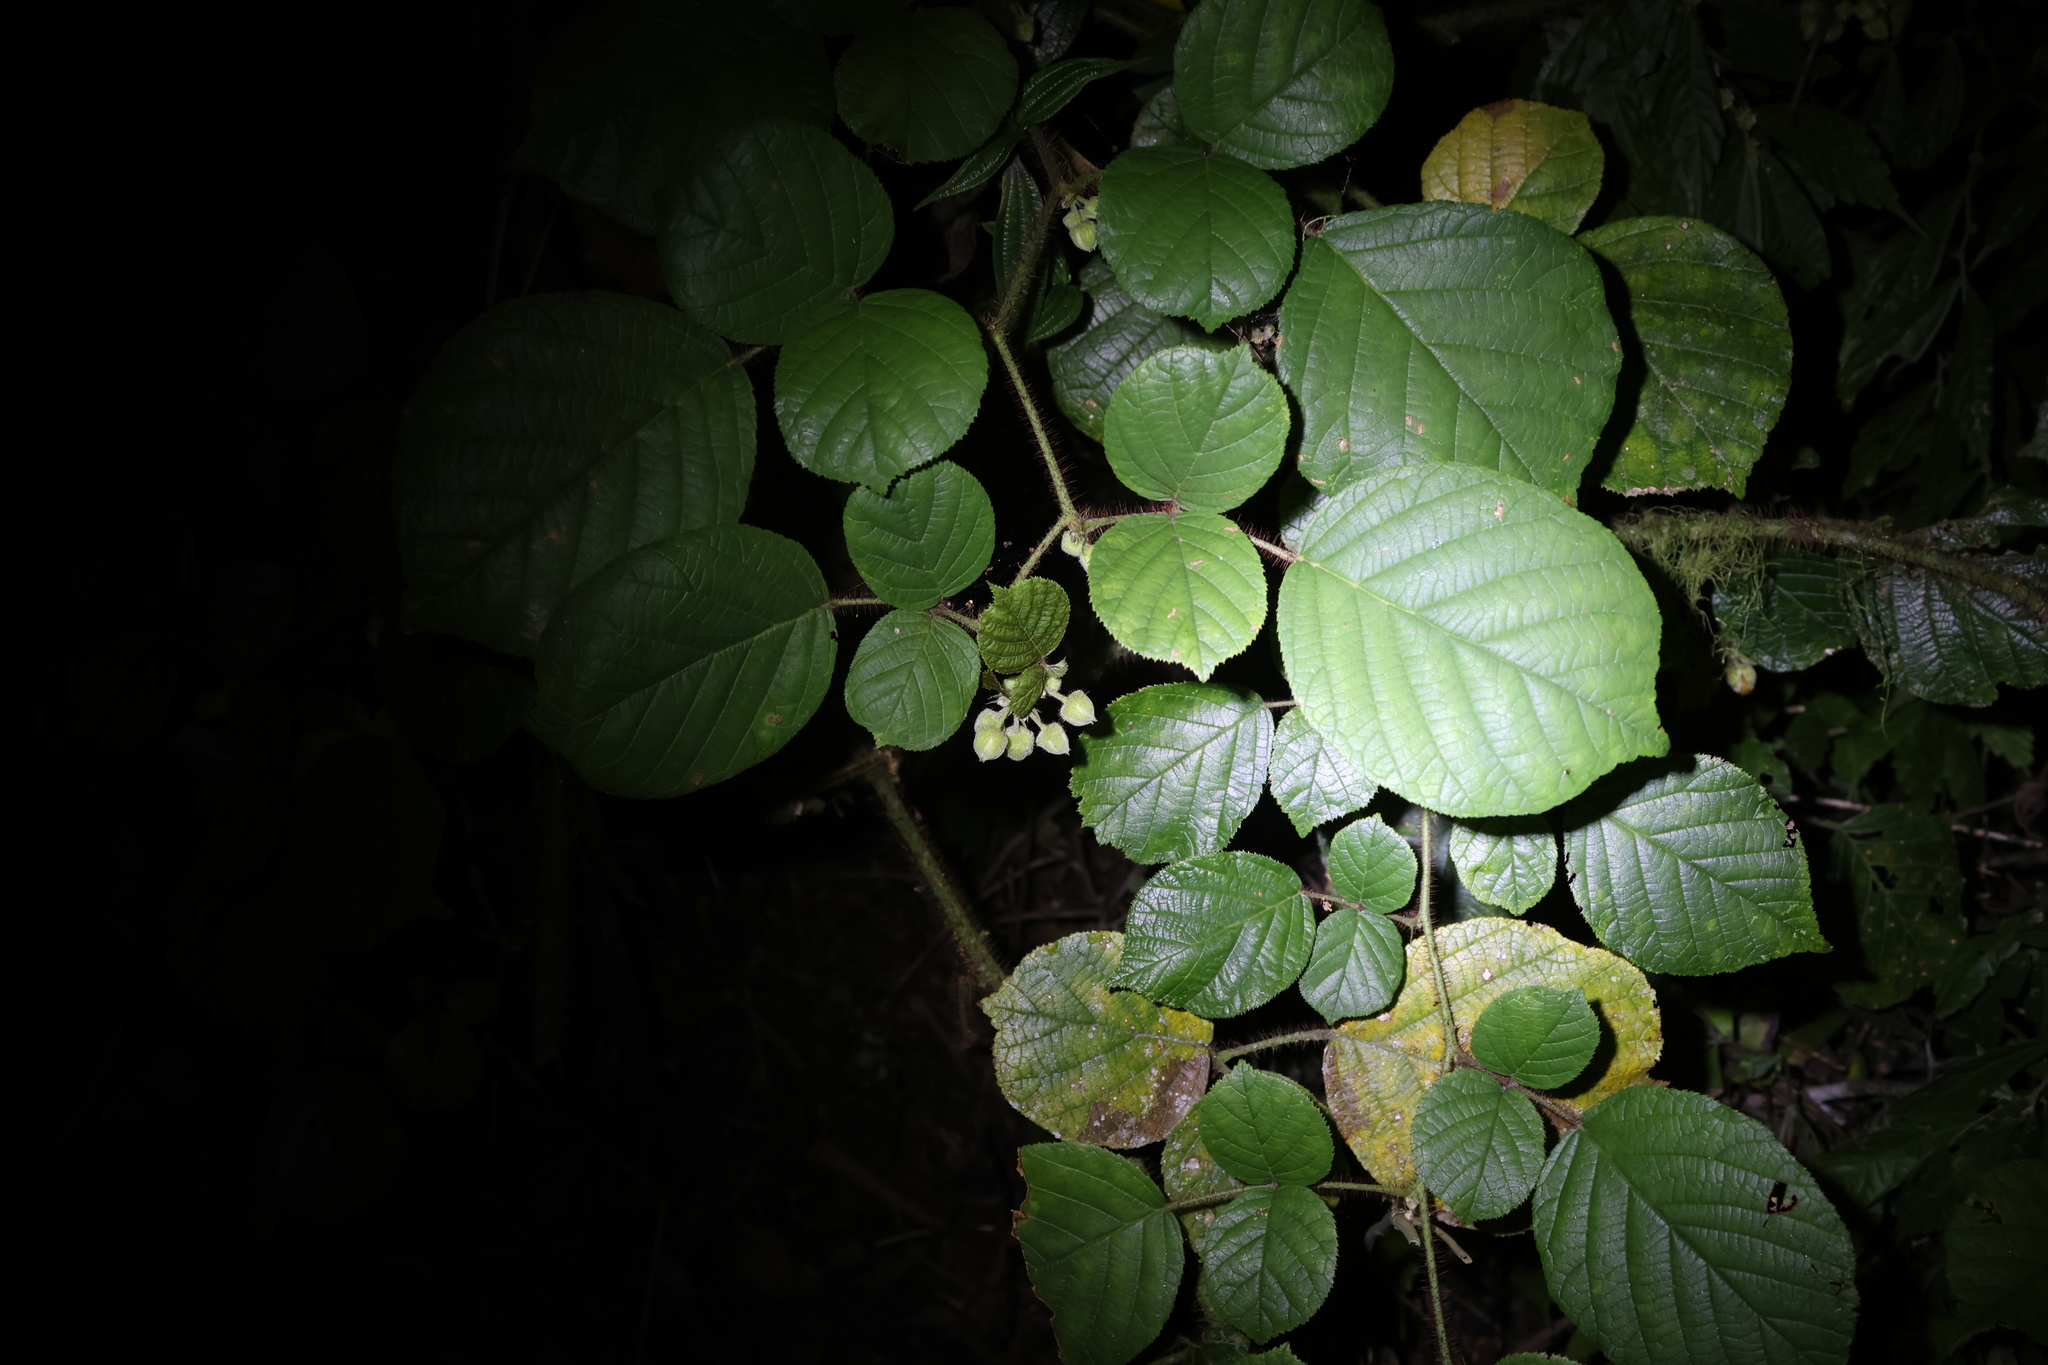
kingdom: Plantae
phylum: Tracheophyta
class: Magnoliopsida
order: Rosales
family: Rosaceae
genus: Rubus
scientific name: Rubus ellipticus
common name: Cheeseberry
